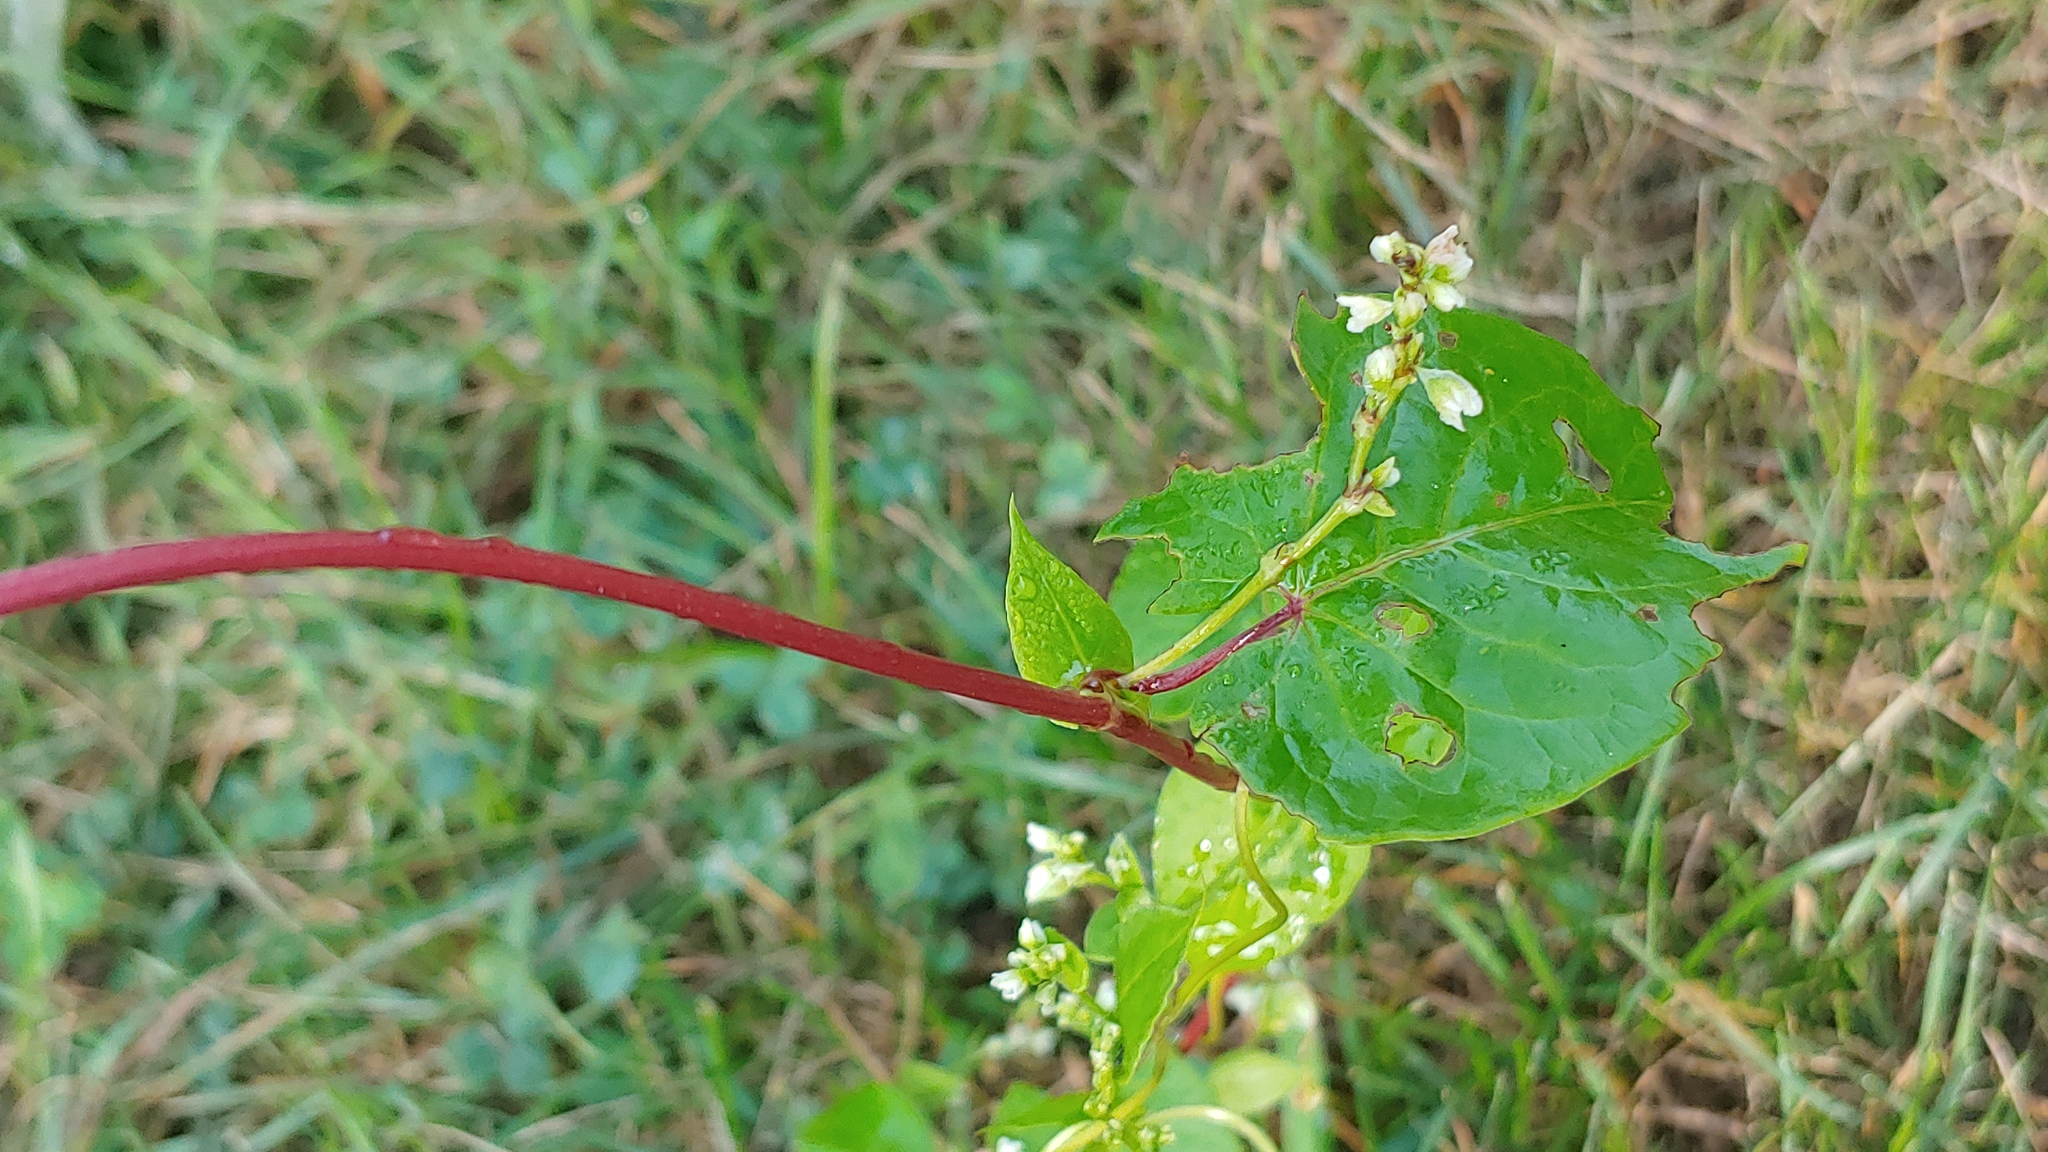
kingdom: Plantae
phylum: Tracheophyta
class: Magnoliopsida
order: Caryophyllales
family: Polygonaceae
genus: Fallopia
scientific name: Fallopia scandens
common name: Climbing false buckwheat
